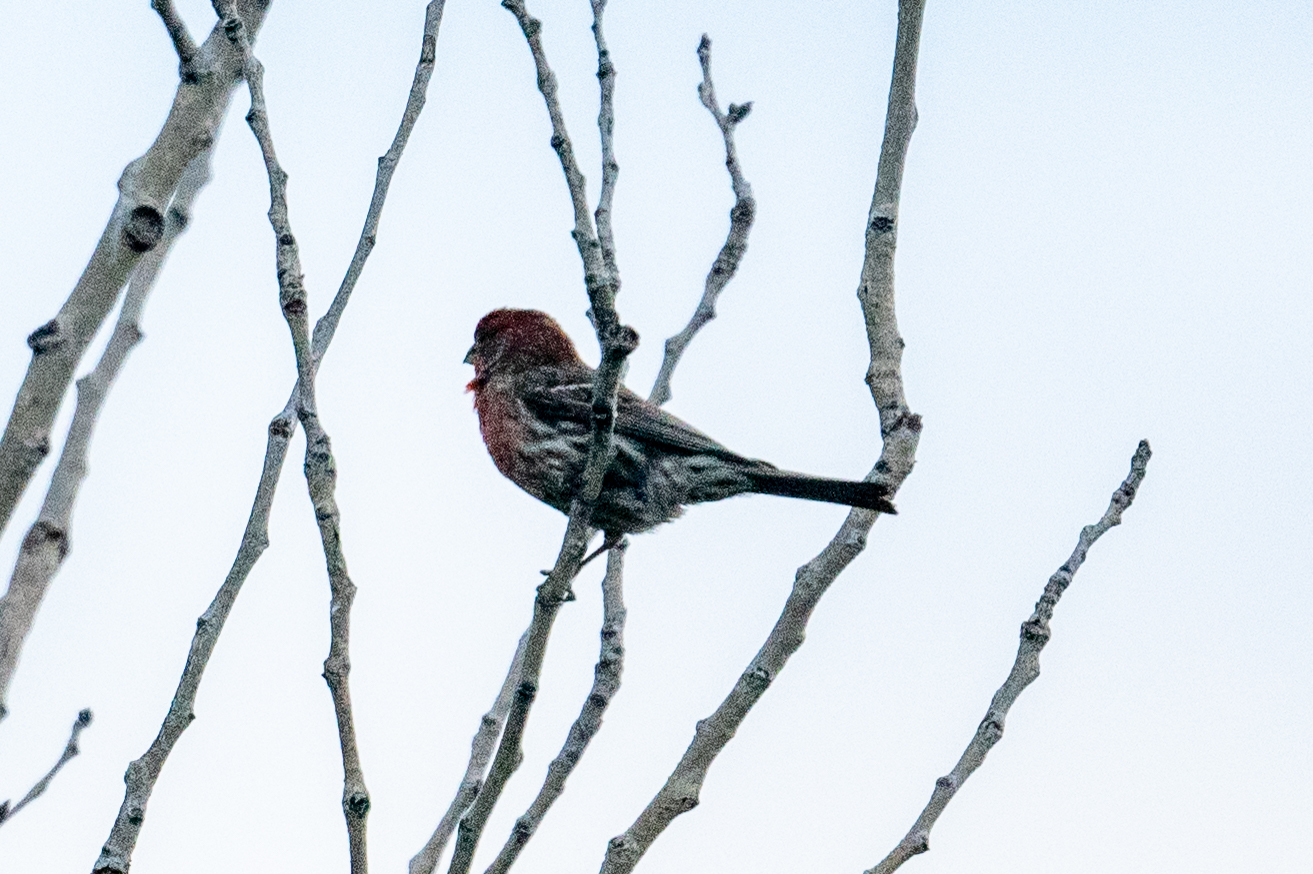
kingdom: Animalia
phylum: Chordata
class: Aves
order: Passeriformes
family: Fringillidae
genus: Haemorhous
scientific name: Haemorhous mexicanus
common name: House finch
